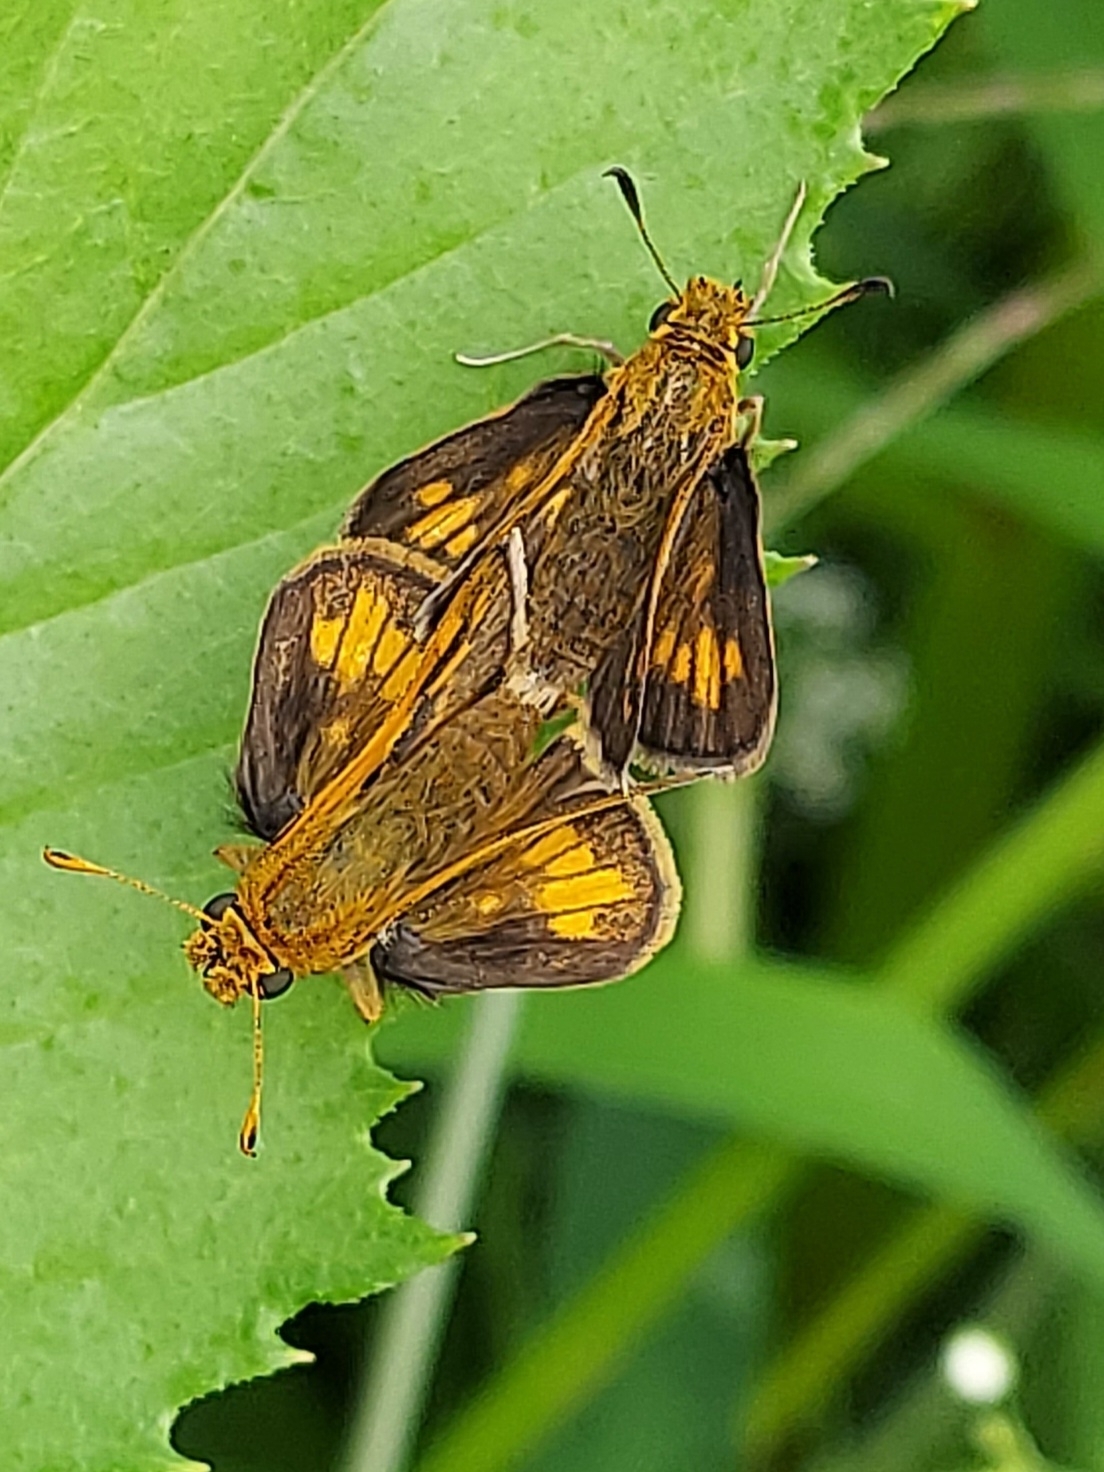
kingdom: Animalia
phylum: Arthropoda
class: Insecta
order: Lepidoptera
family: Hesperiidae
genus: Polites
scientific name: Polites coras
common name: Peck's skipper
